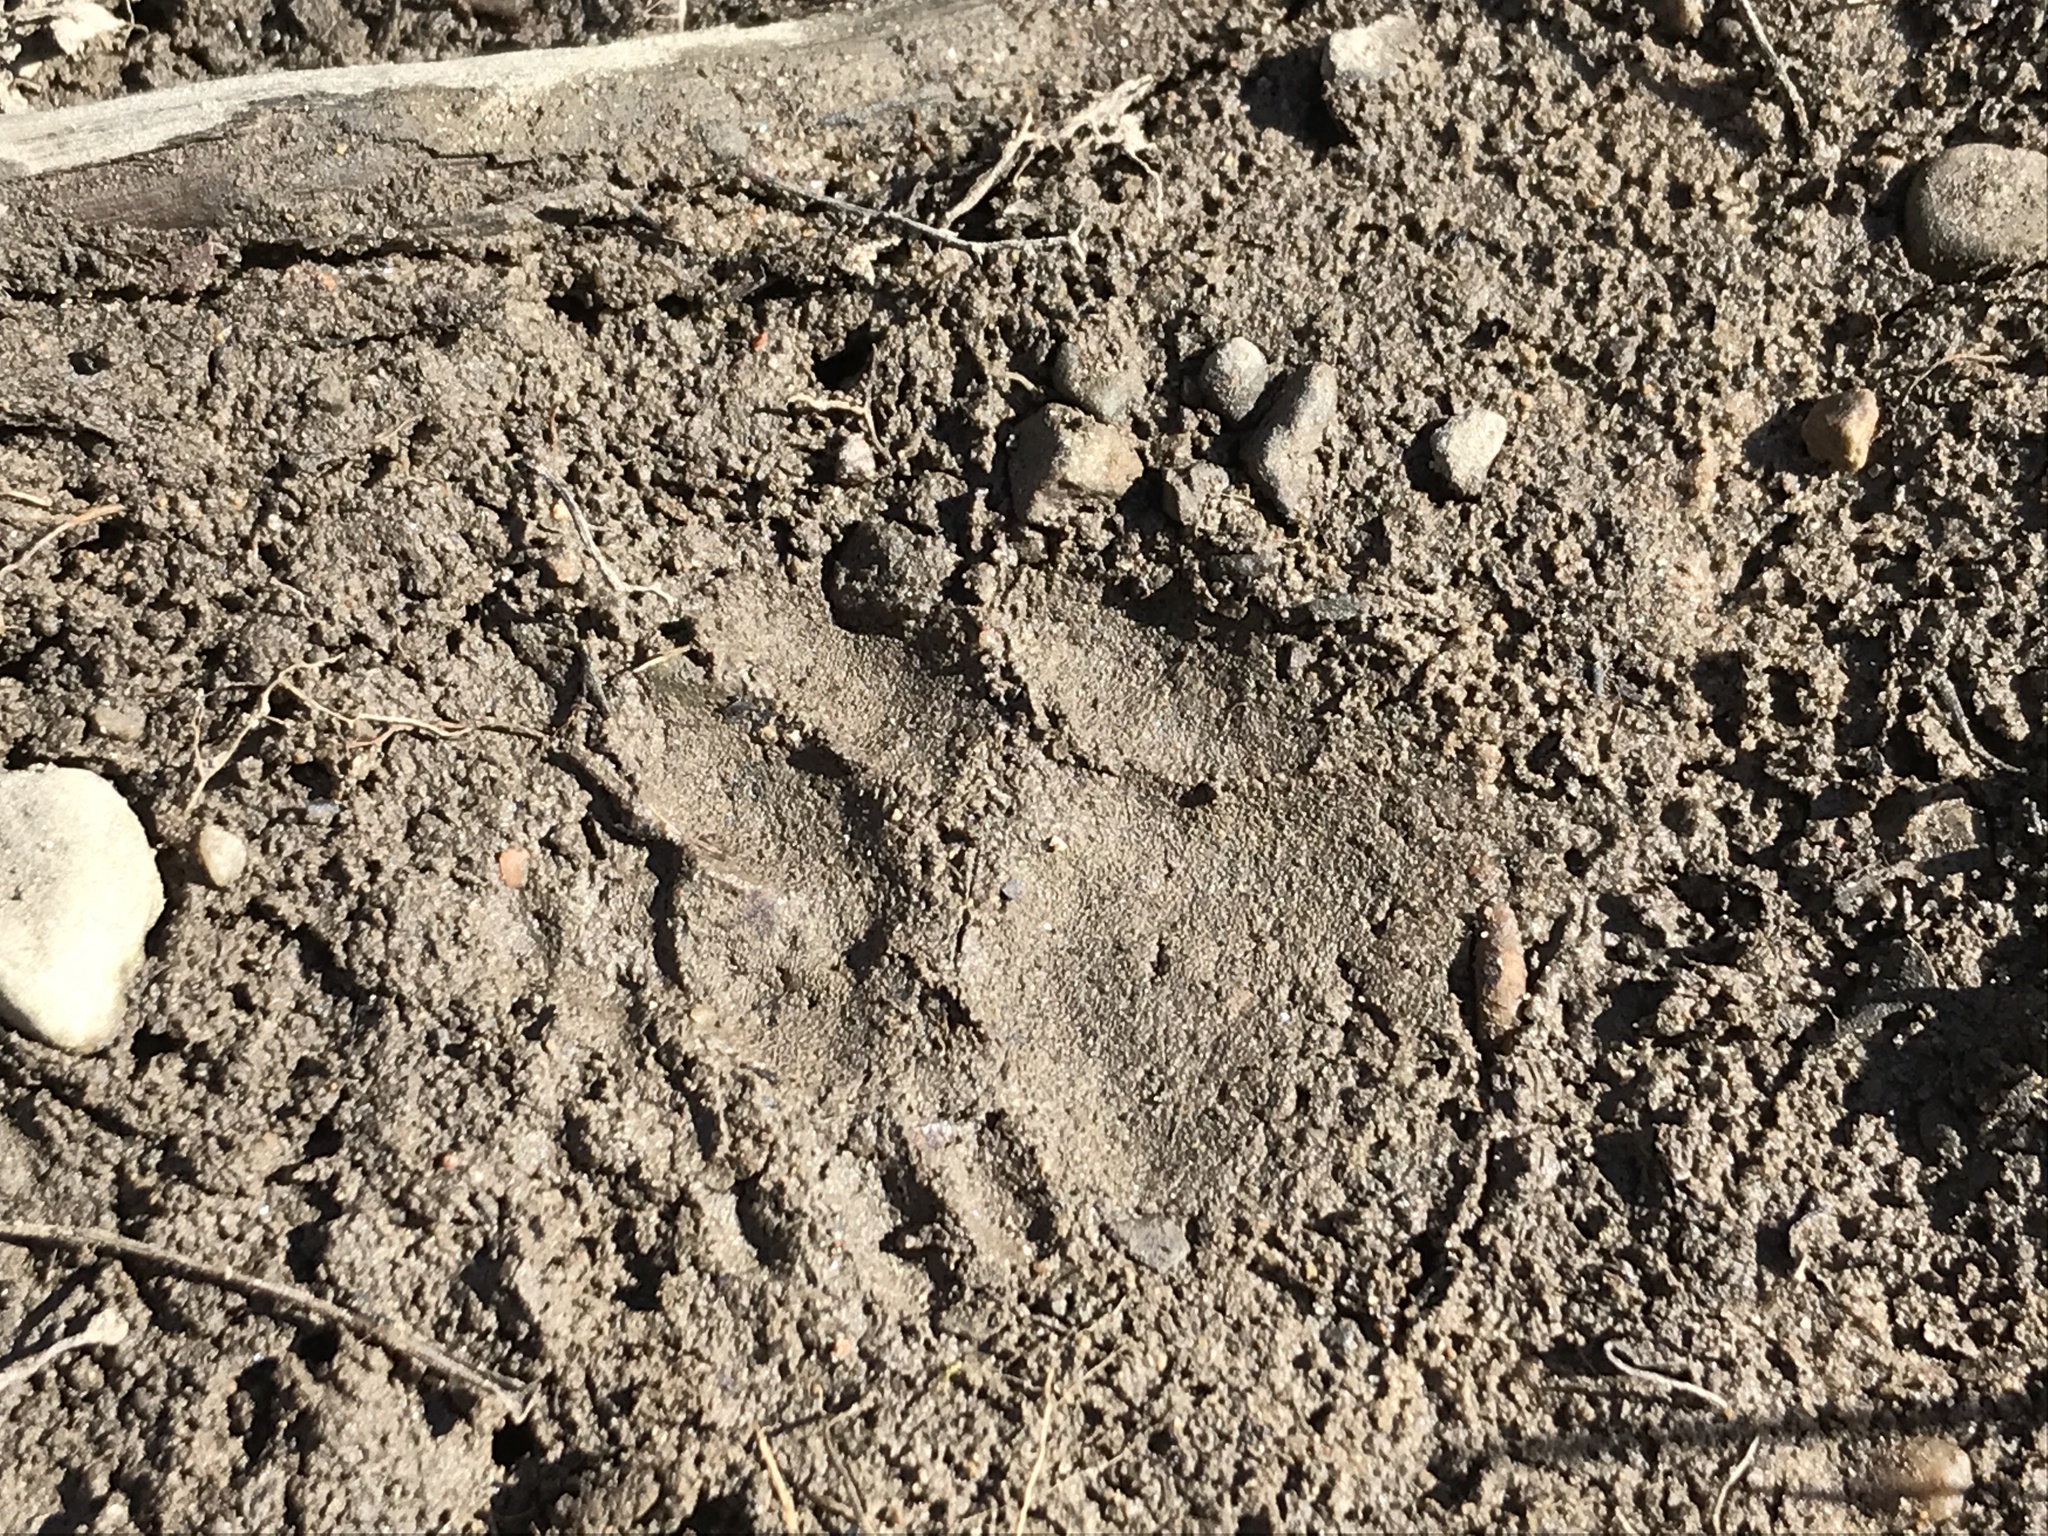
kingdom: Animalia
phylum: Chordata
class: Mammalia
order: Carnivora
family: Procyonidae
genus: Procyon
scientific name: Procyon lotor
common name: Raccoon
